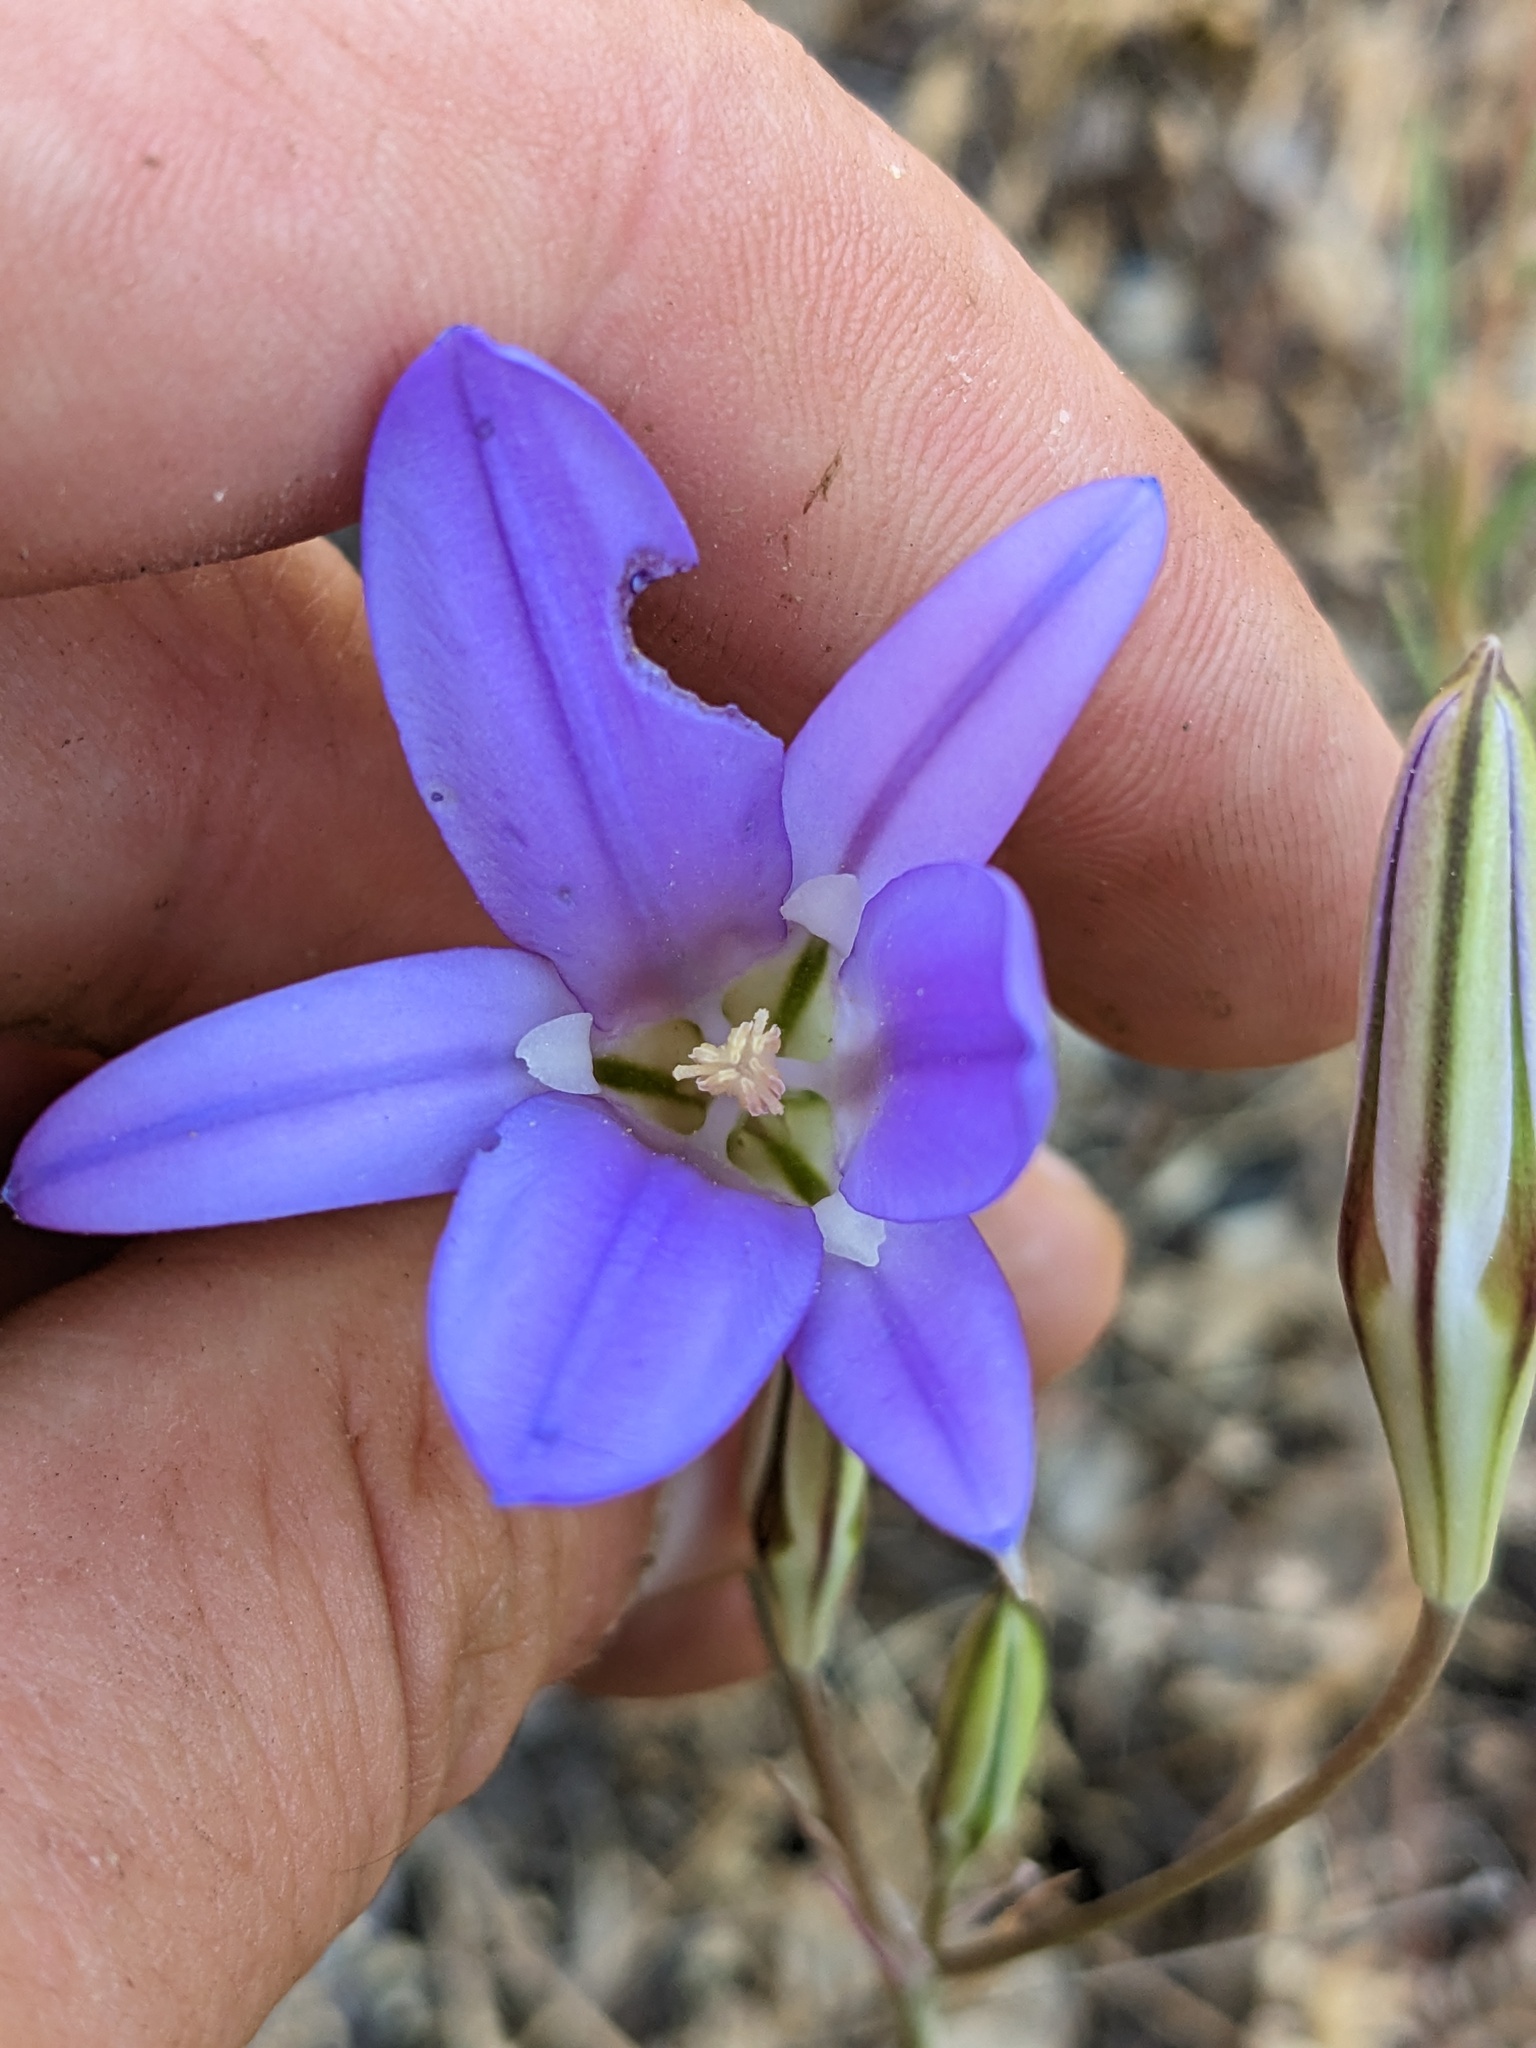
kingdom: Plantae
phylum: Tracheophyta
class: Liliopsida
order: Asparagales
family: Asparagaceae
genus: Brodiaea
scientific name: Brodiaea elegans
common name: Elegant cluster-lily
